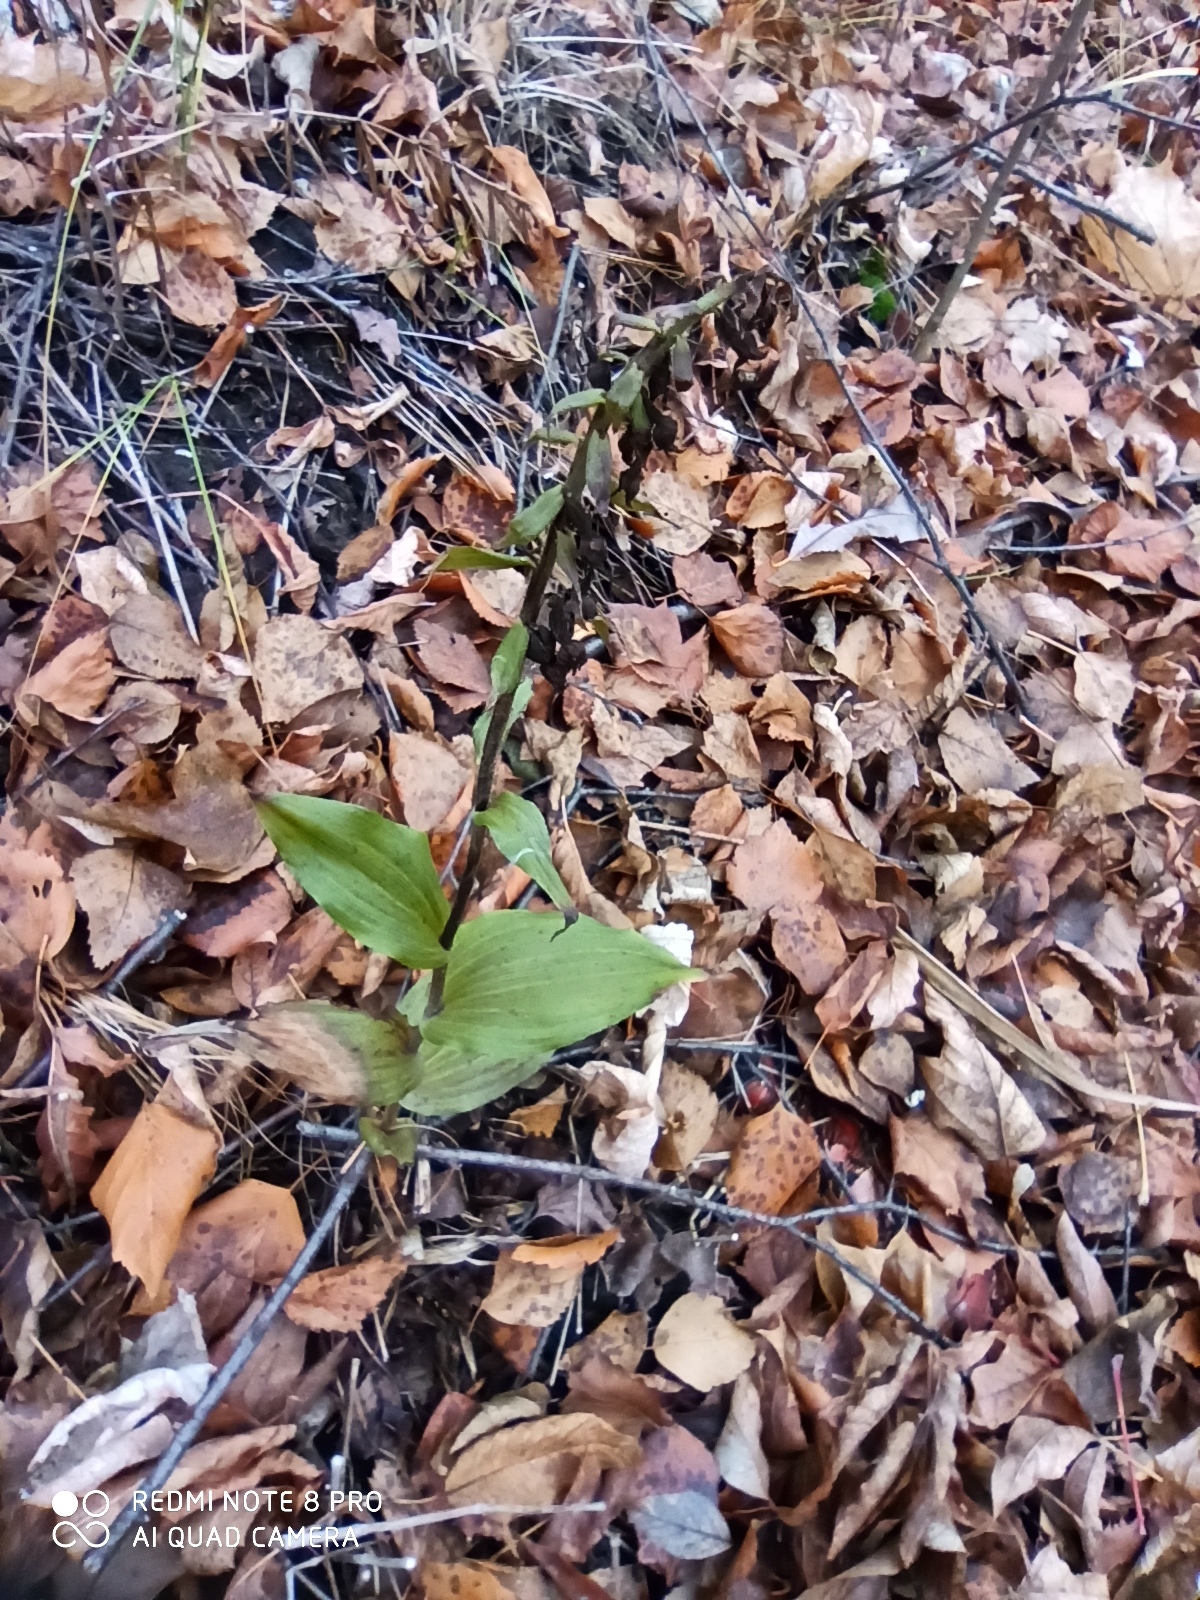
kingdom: Plantae
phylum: Tracheophyta
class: Liliopsida
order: Asparagales
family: Orchidaceae
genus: Epipactis
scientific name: Epipactis helleborine
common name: Broad-leaved helleborine
